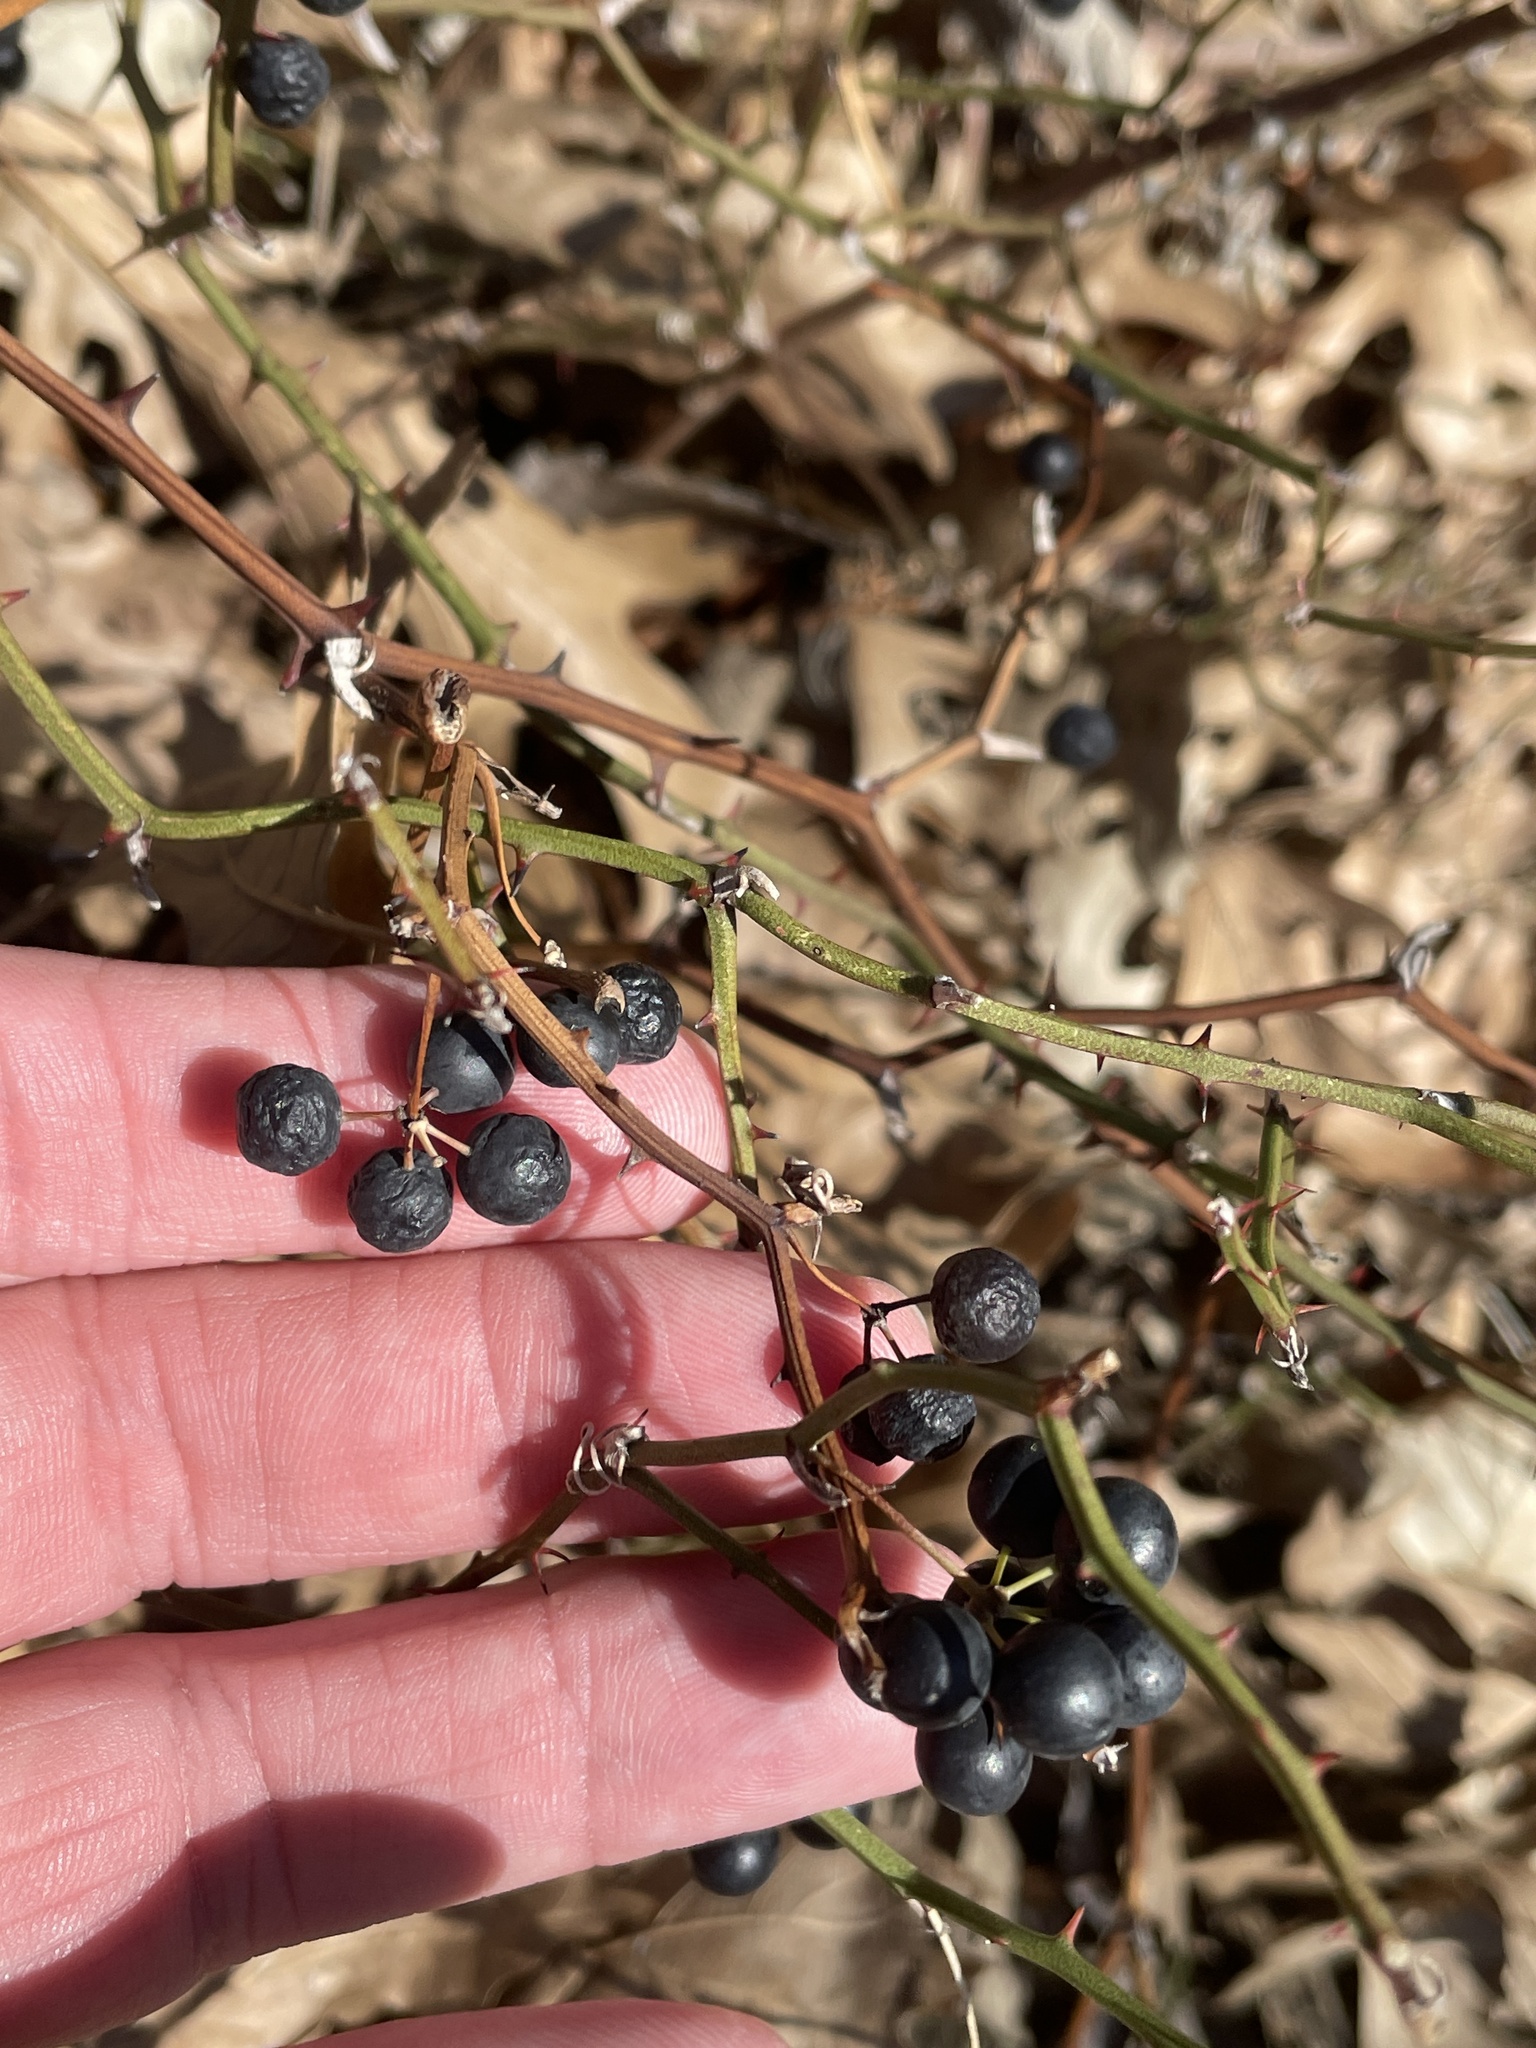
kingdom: Plantae
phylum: Tracheophyta
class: Liliopsida
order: Liliales
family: Smilacaceae
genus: Smilax
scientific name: Smilax bona-nox
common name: Catbrier
